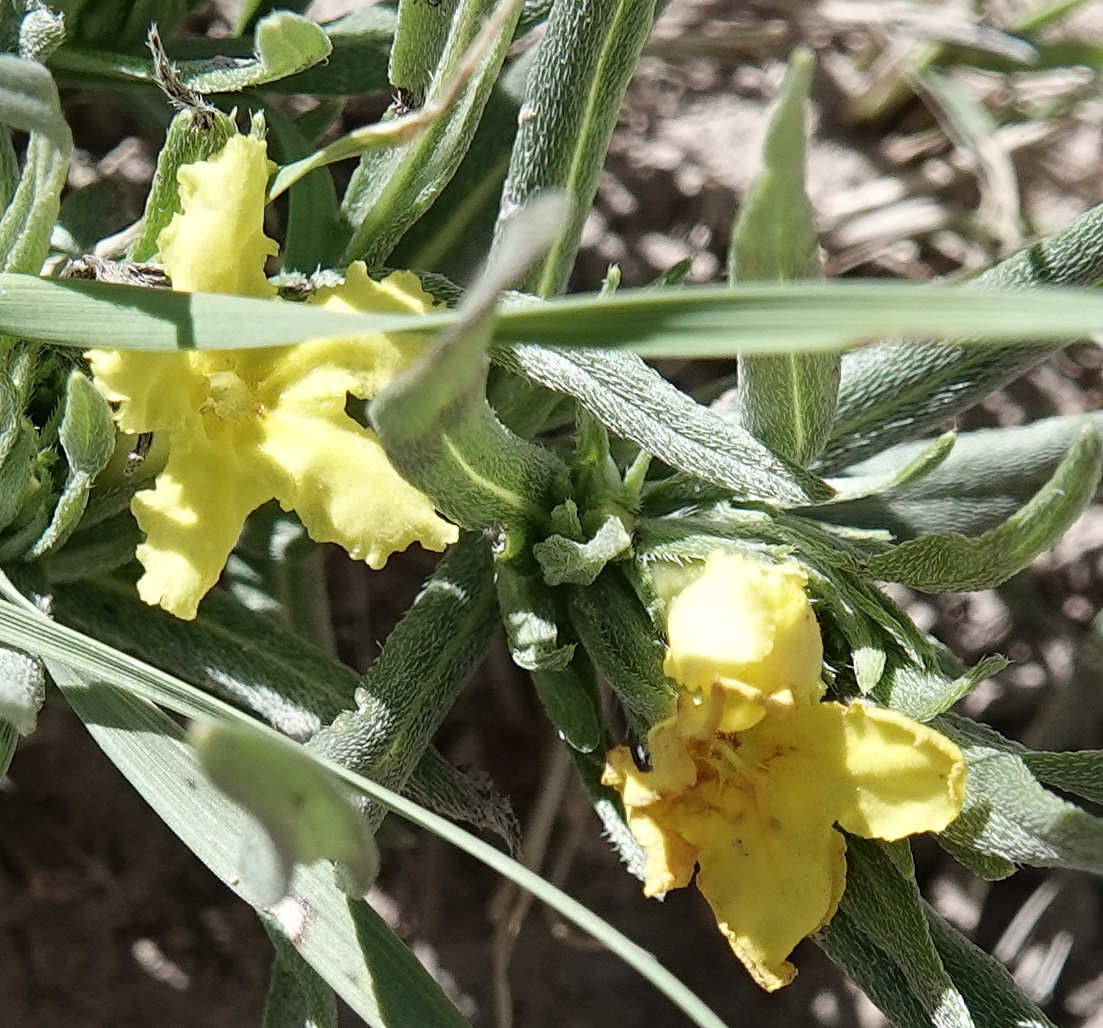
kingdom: Plantae
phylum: Tracheophyta
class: Magnoliopsida
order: Boraginales
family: Boraginaceae
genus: Lithospermum
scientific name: Lithospermum incisum
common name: Fringed gromwell
